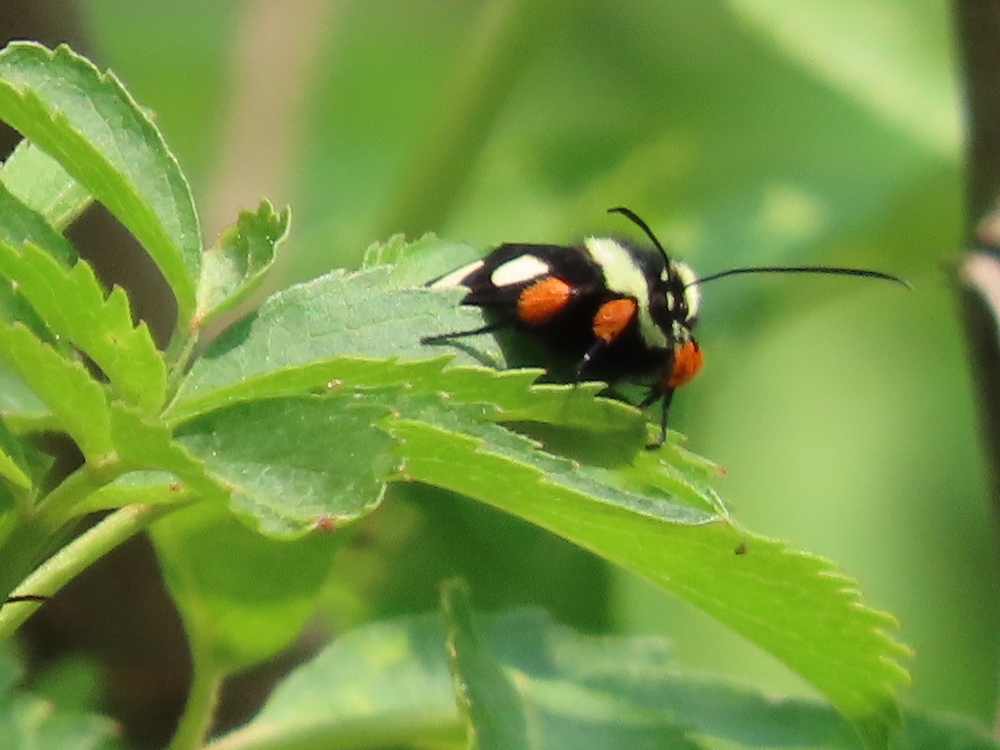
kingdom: Animalia
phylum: Arthropoda
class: Insecta
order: Lepidoptera
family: Noctuidae
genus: Alypia
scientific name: Alypia octomaculata
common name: Eight-spotted forester
